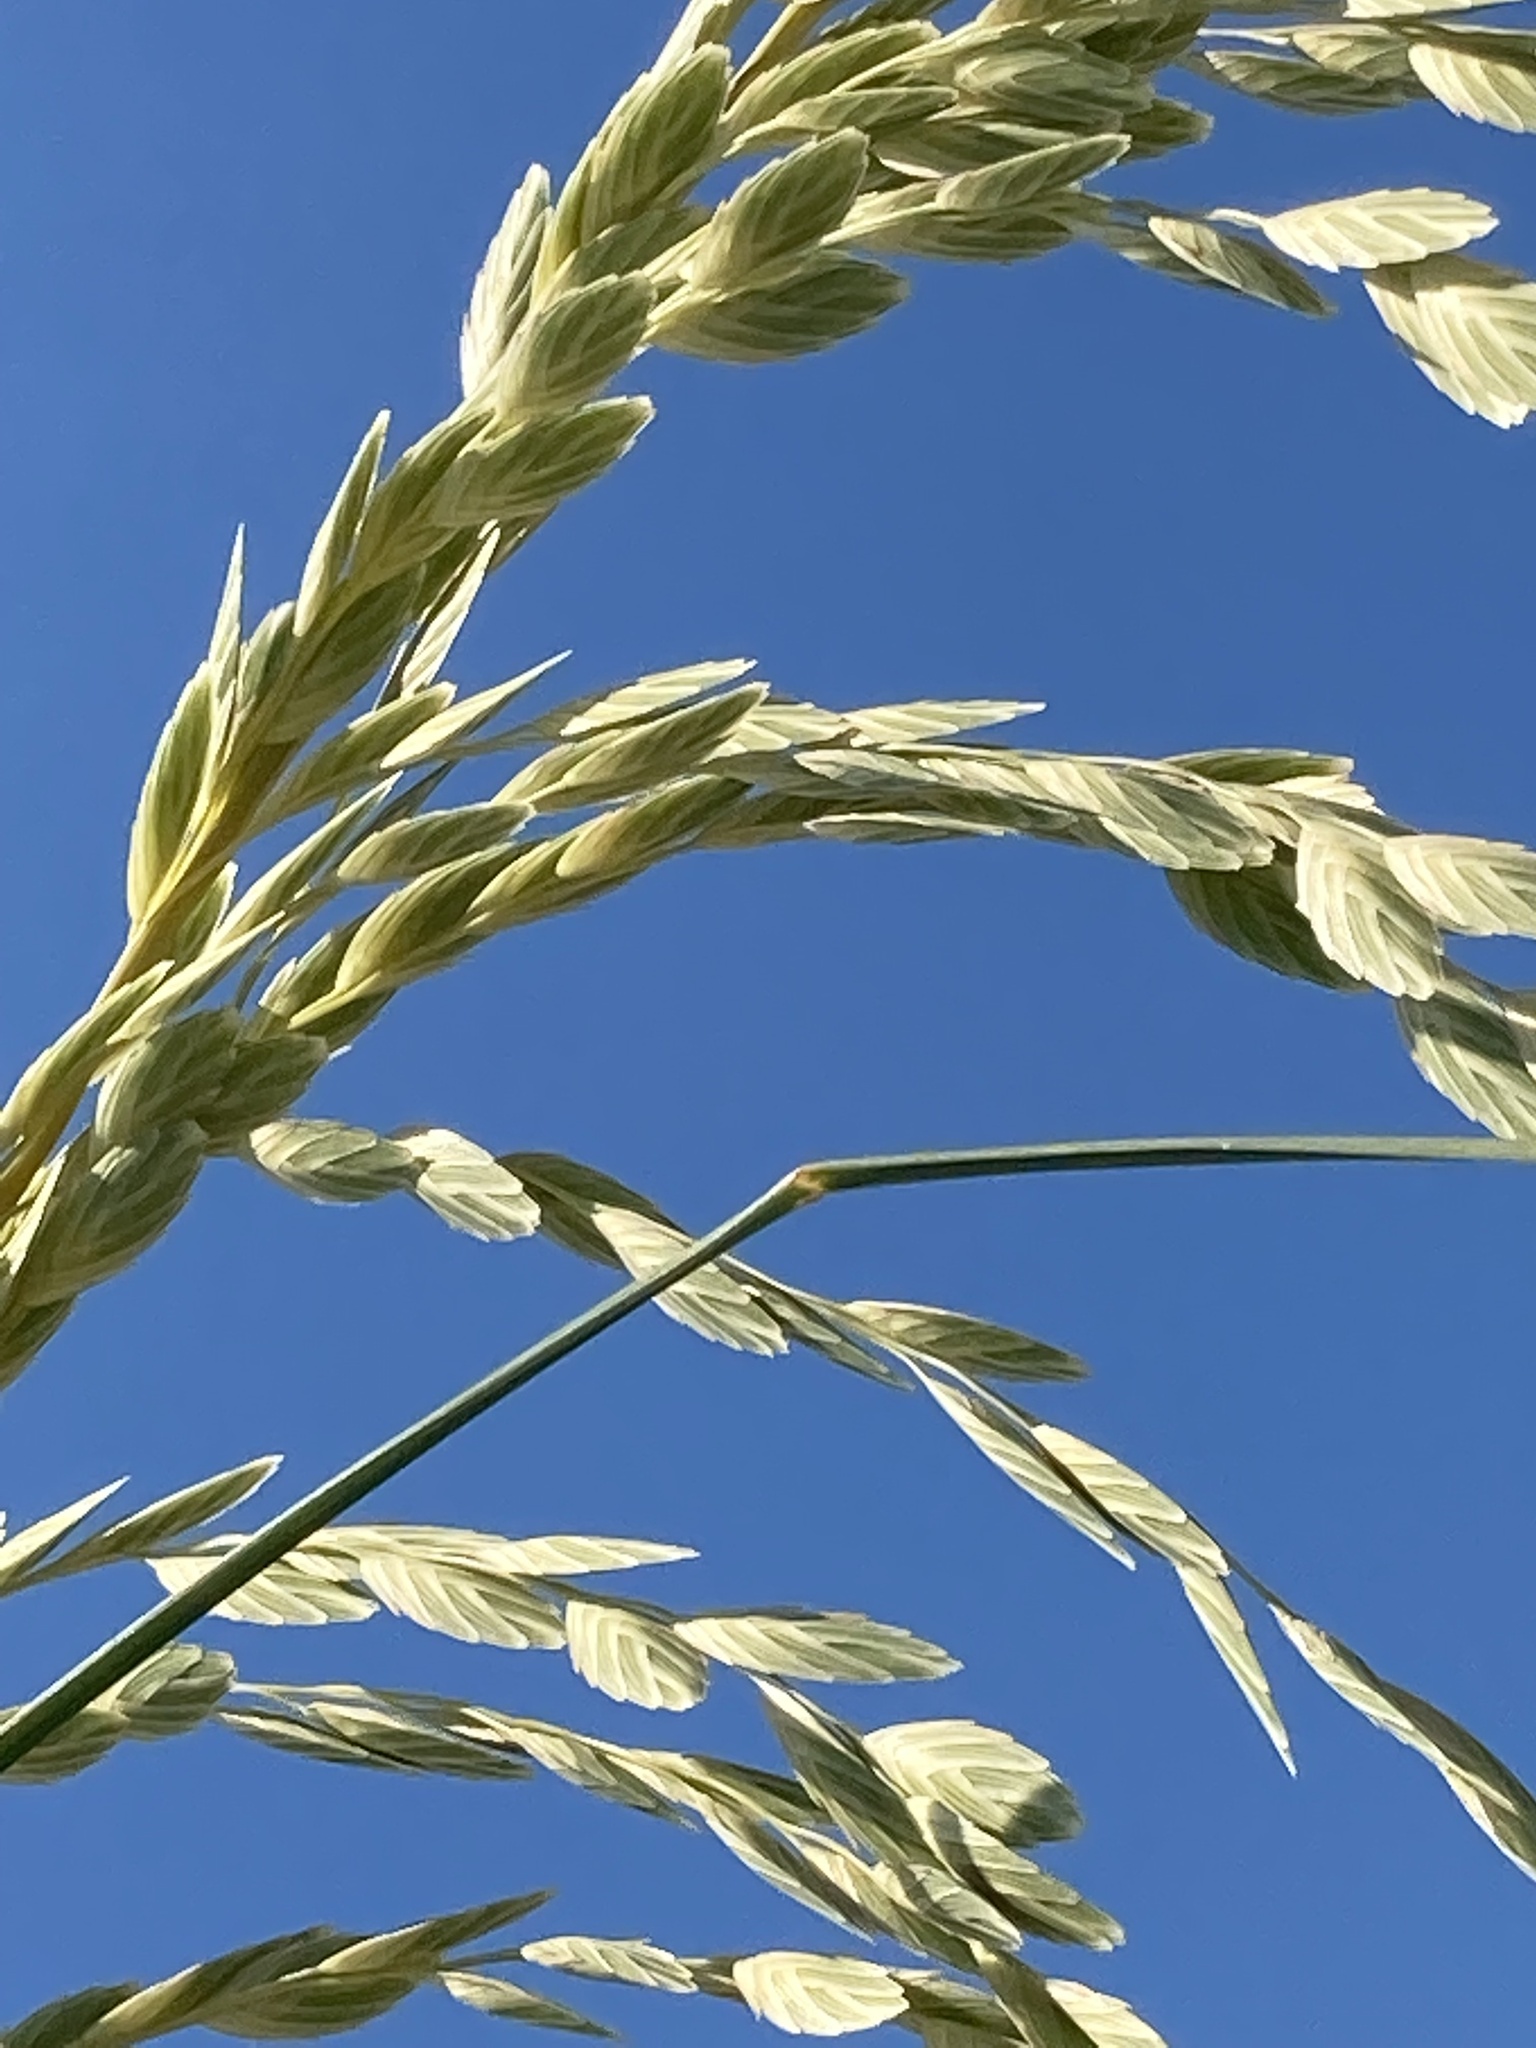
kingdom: Plantae
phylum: Tracheophyta
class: Liliopsida
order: Poales
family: Poaceae
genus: Uniola
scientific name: Uniola paniculata
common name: Seaside-oats
